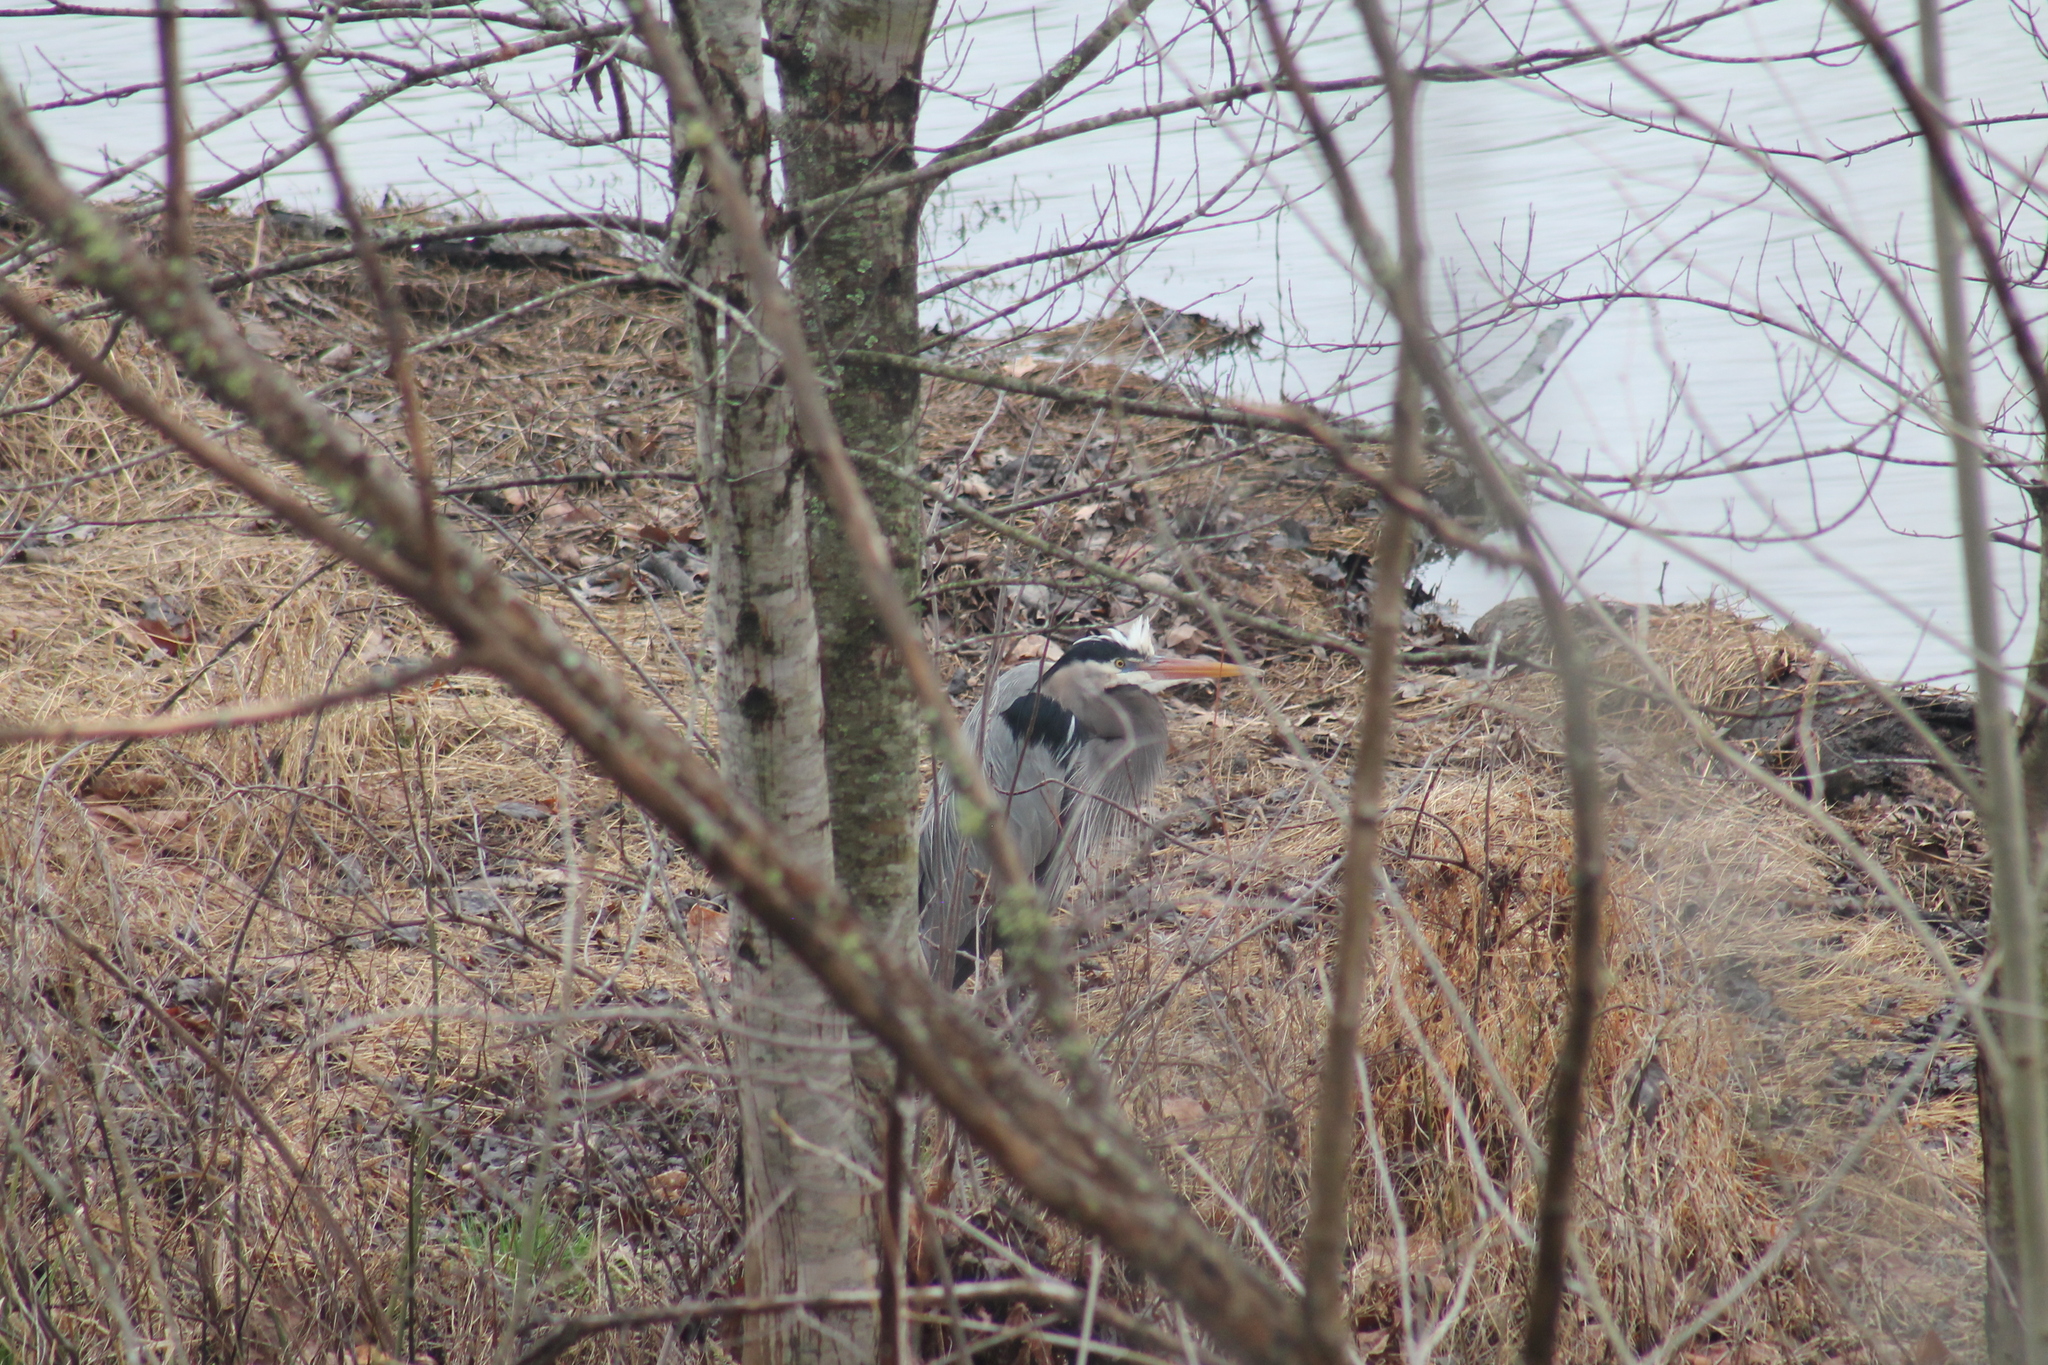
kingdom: Animalia
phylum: Chordata
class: Aves
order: Pelecaniformes
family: Ardeidae
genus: Ardea
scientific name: Ardea herodias
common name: Great blue heron
